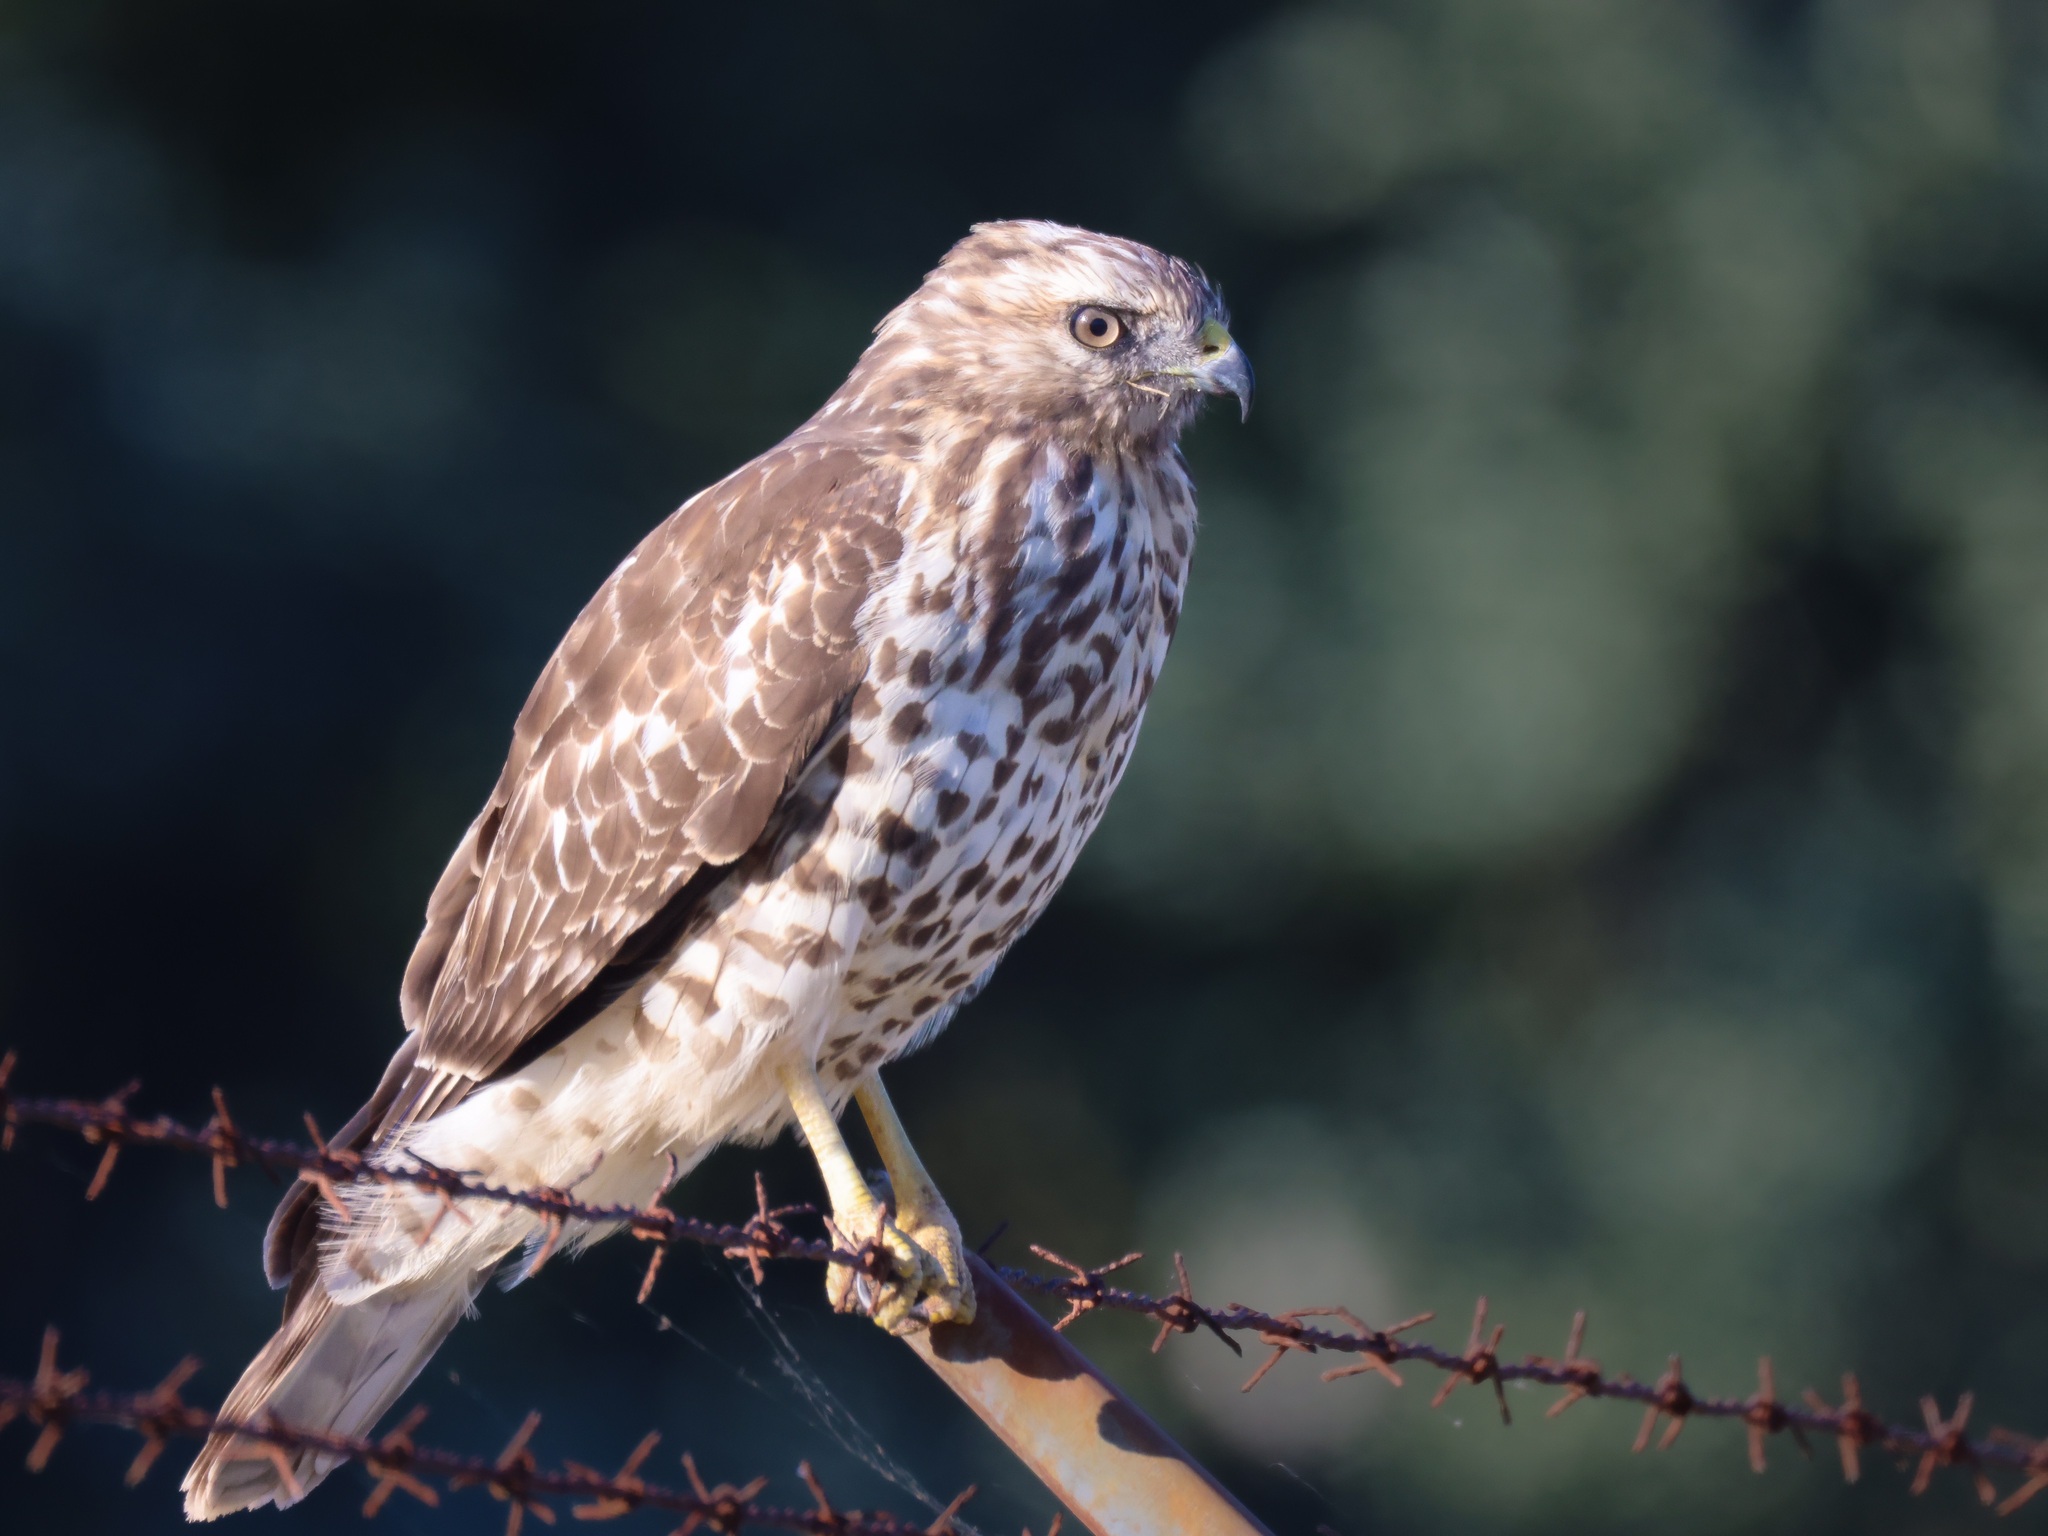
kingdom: Animalia
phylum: Chordata
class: Aves
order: Accipitriformes
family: Accipitridae
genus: Buteo
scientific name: Buteo lineatus
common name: Red-shouldered hawk
